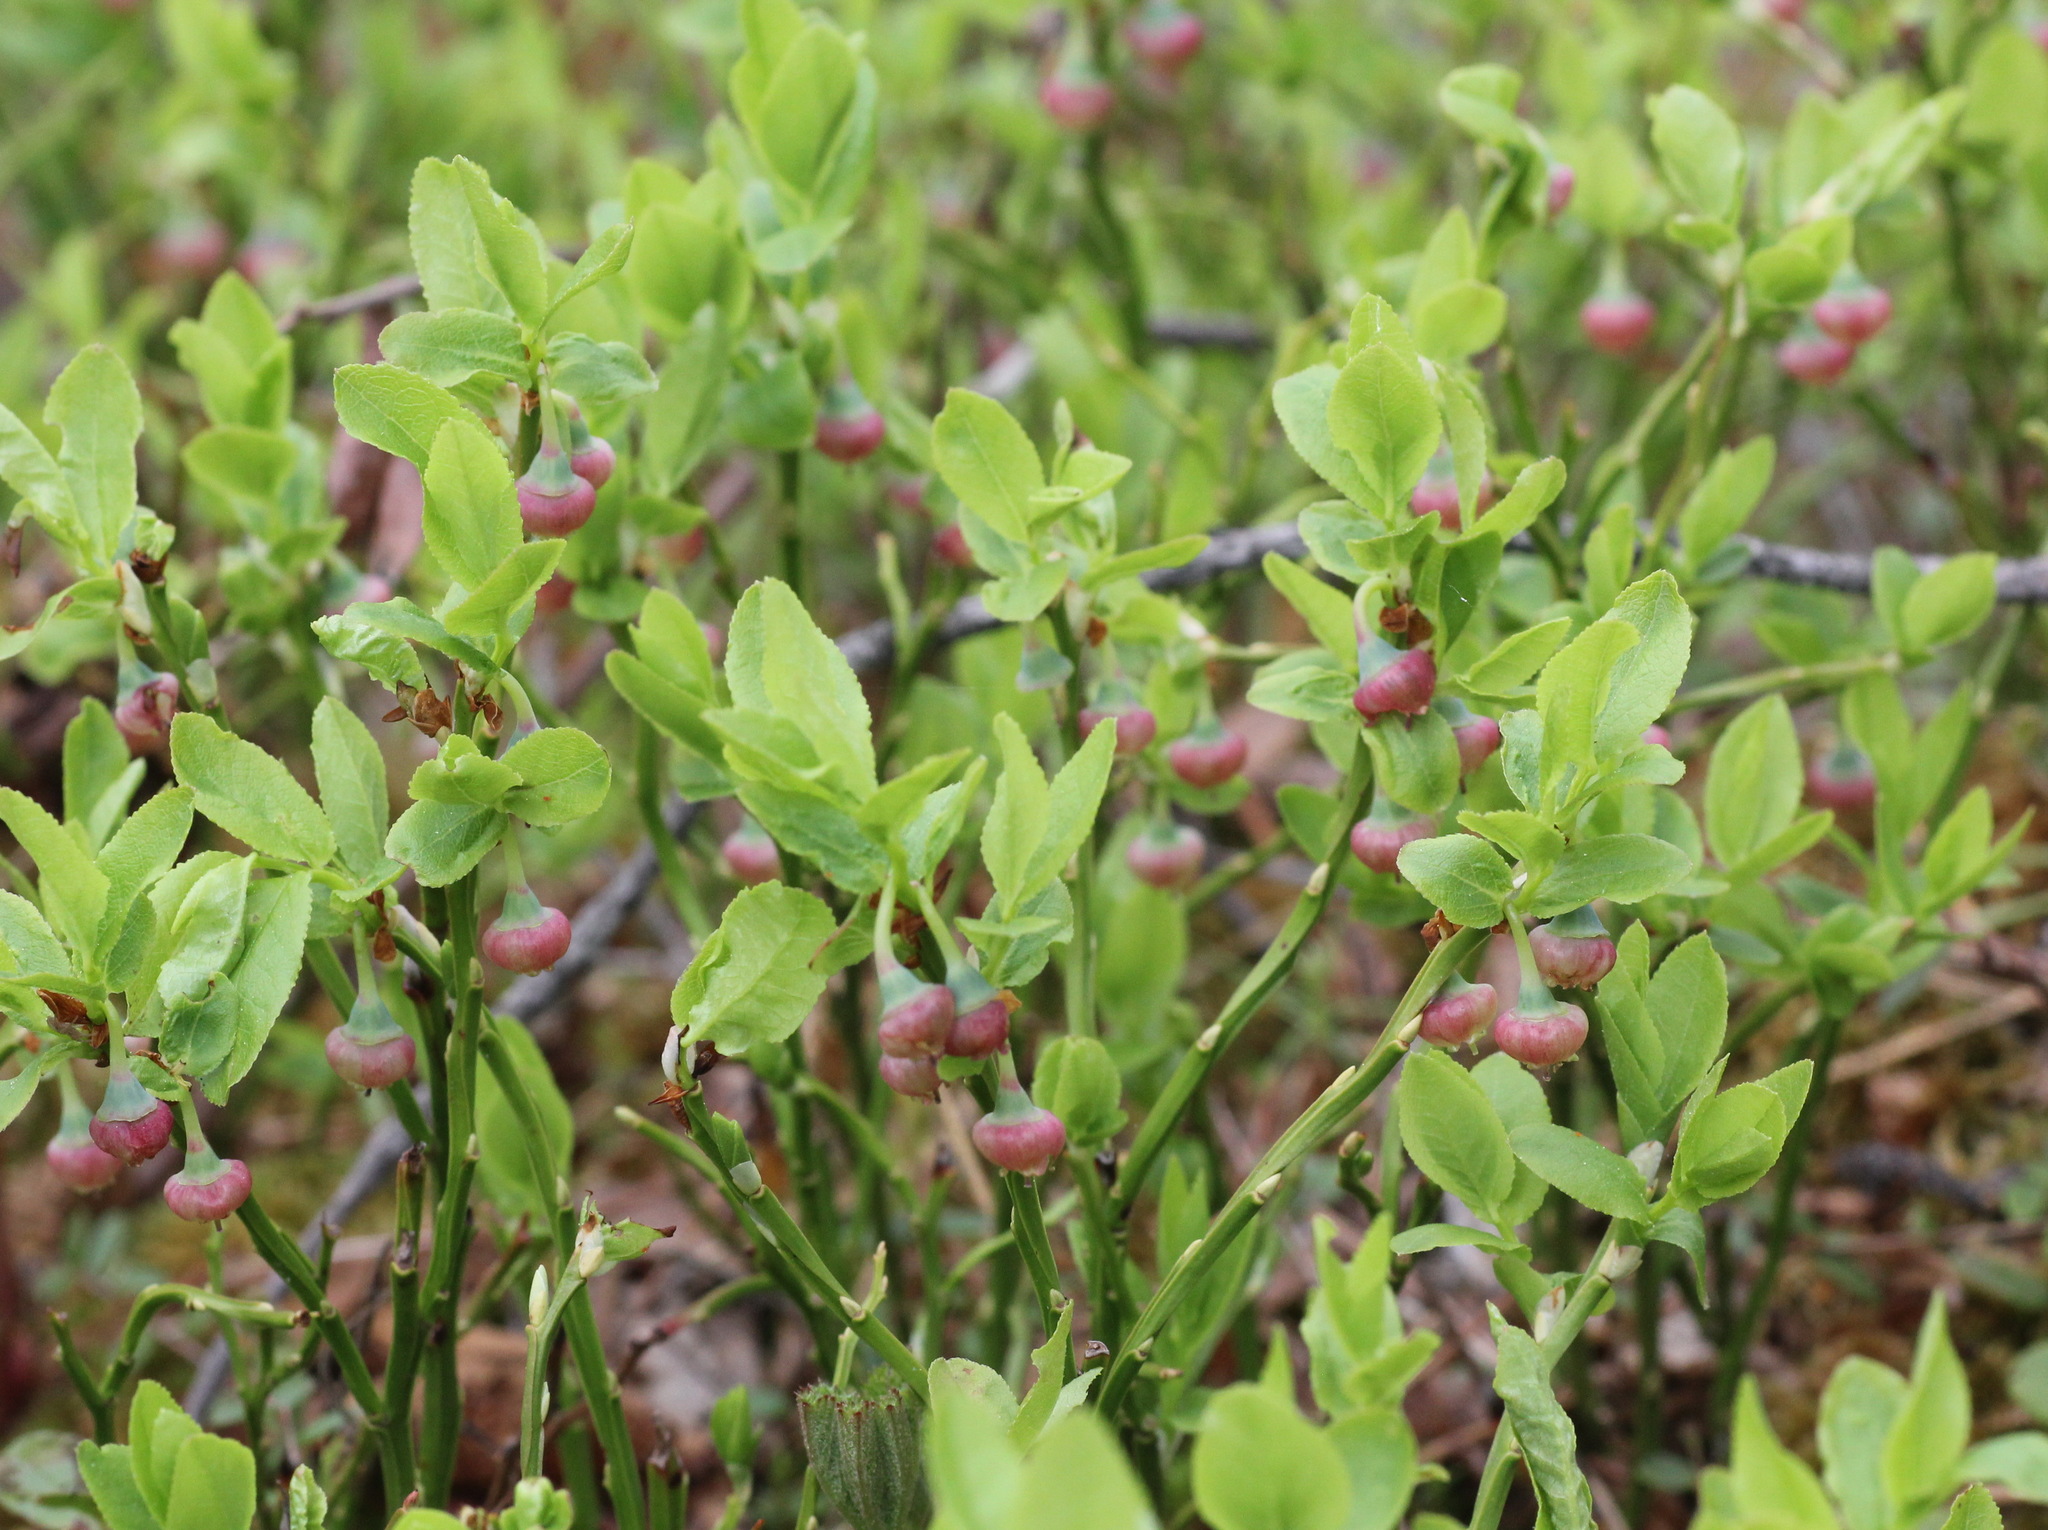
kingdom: Plantae
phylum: Tracheophyta
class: Magnoliopsida
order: Ericales
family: Ericaceae
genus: Vaccinium
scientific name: Vaccinium myrtillus
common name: Bilberry
